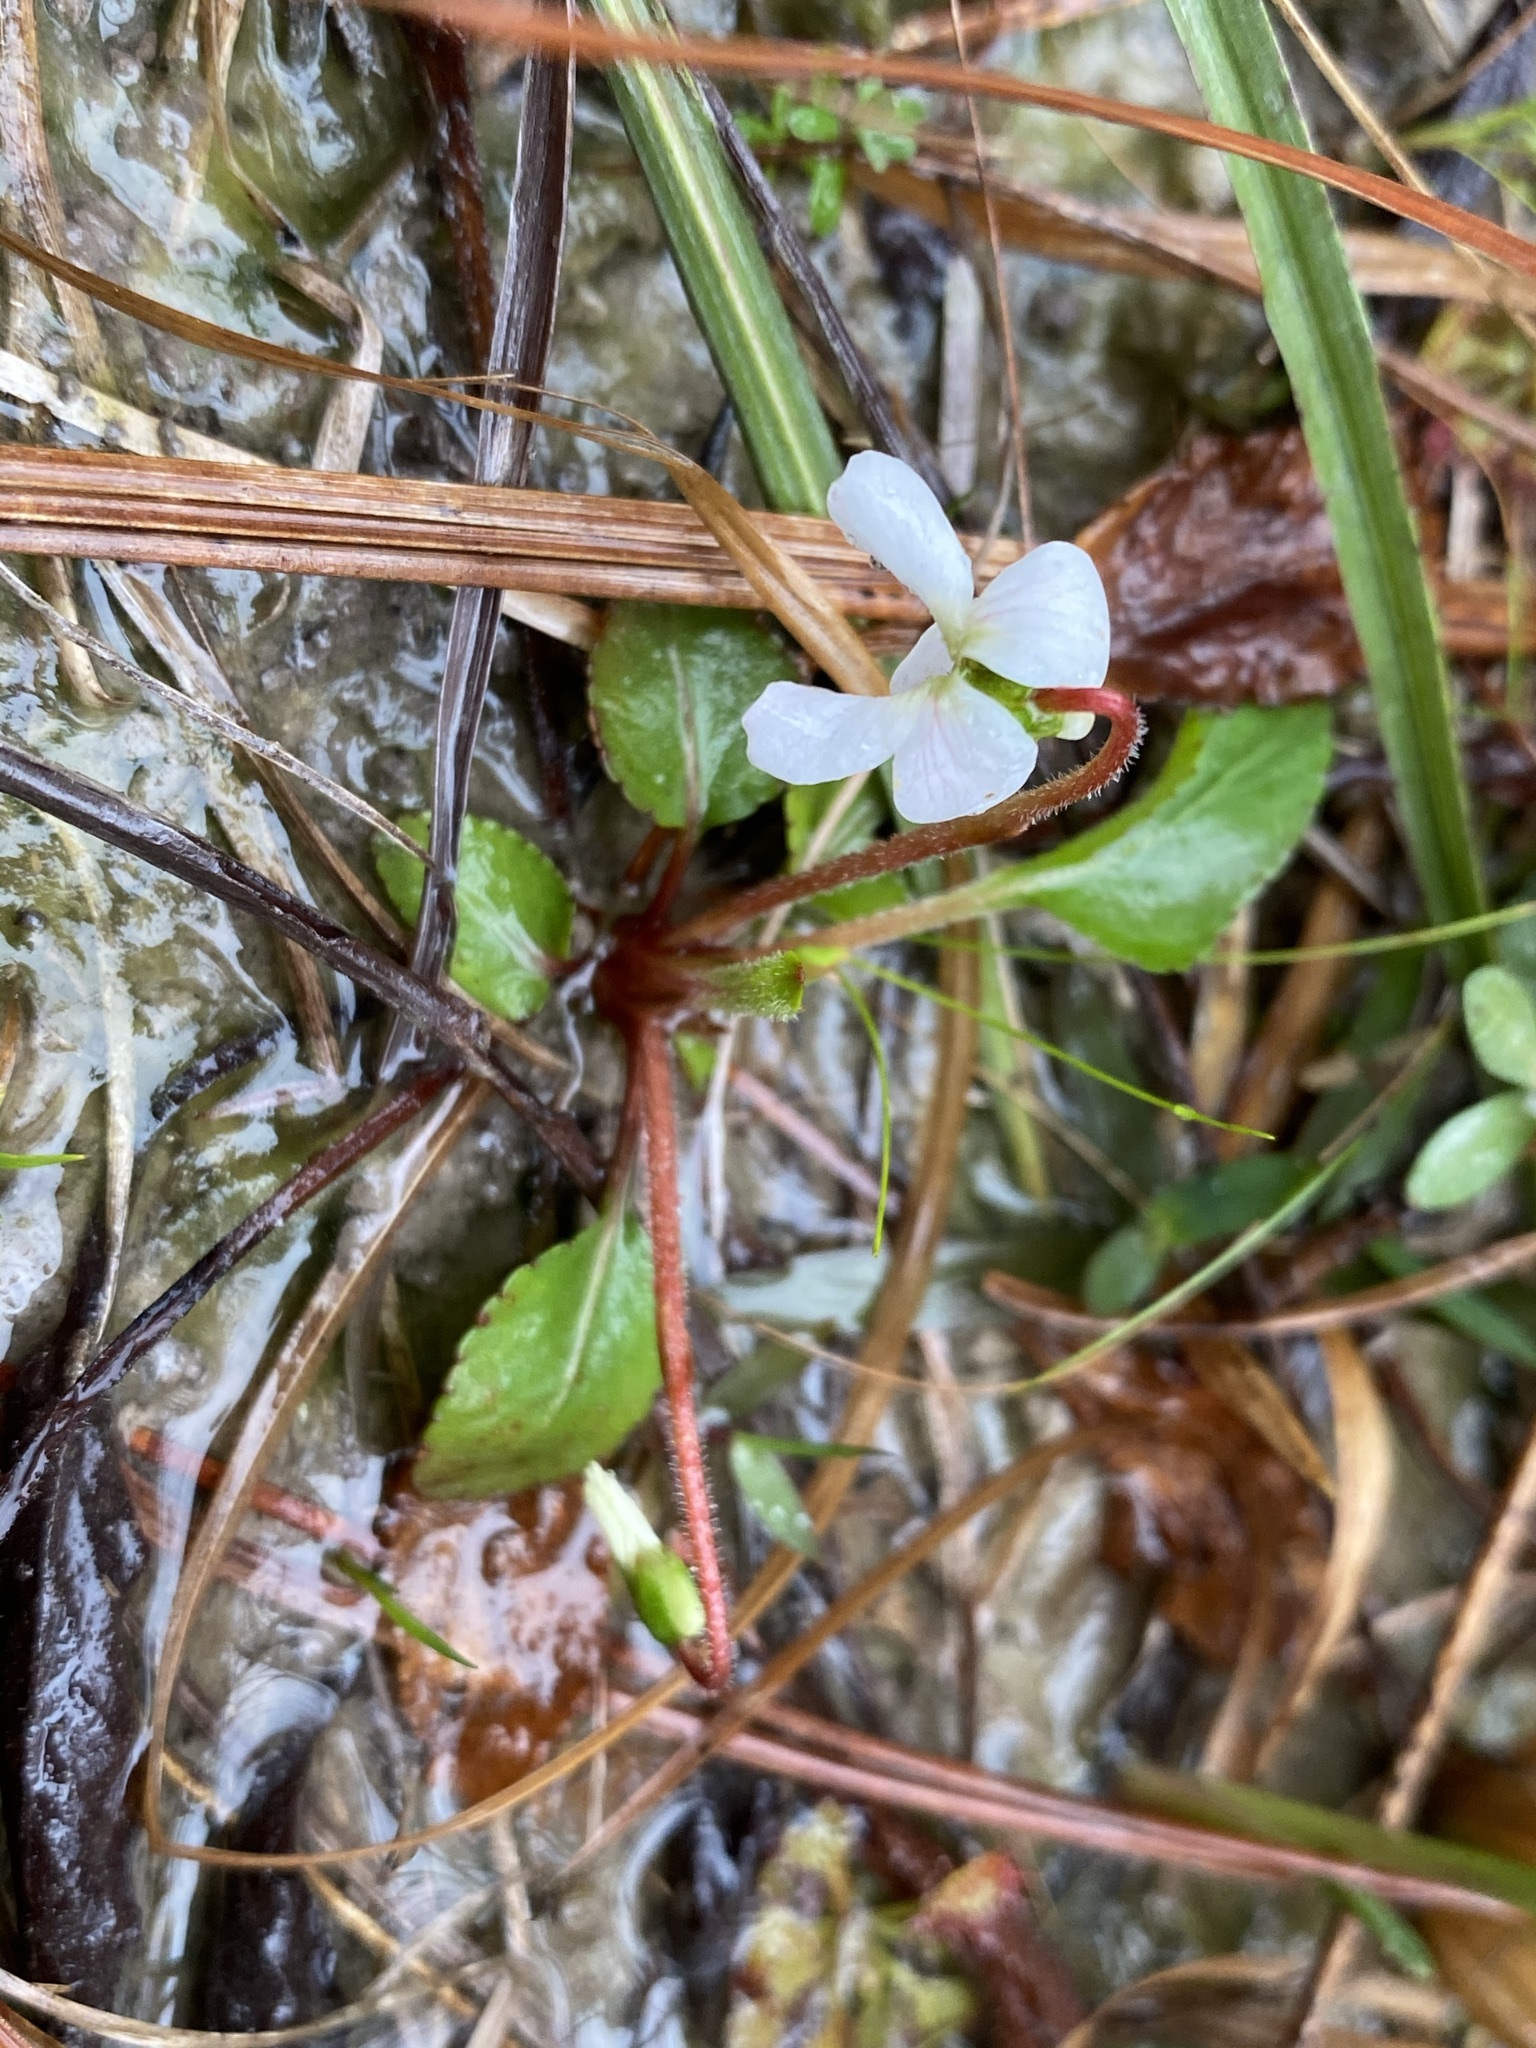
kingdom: Plantae
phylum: Tracheophyta
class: Magnoliopsida
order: Malpighiales
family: Violaceae
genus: Viola
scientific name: Viola primulifolia
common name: Primrose-leaf violet
